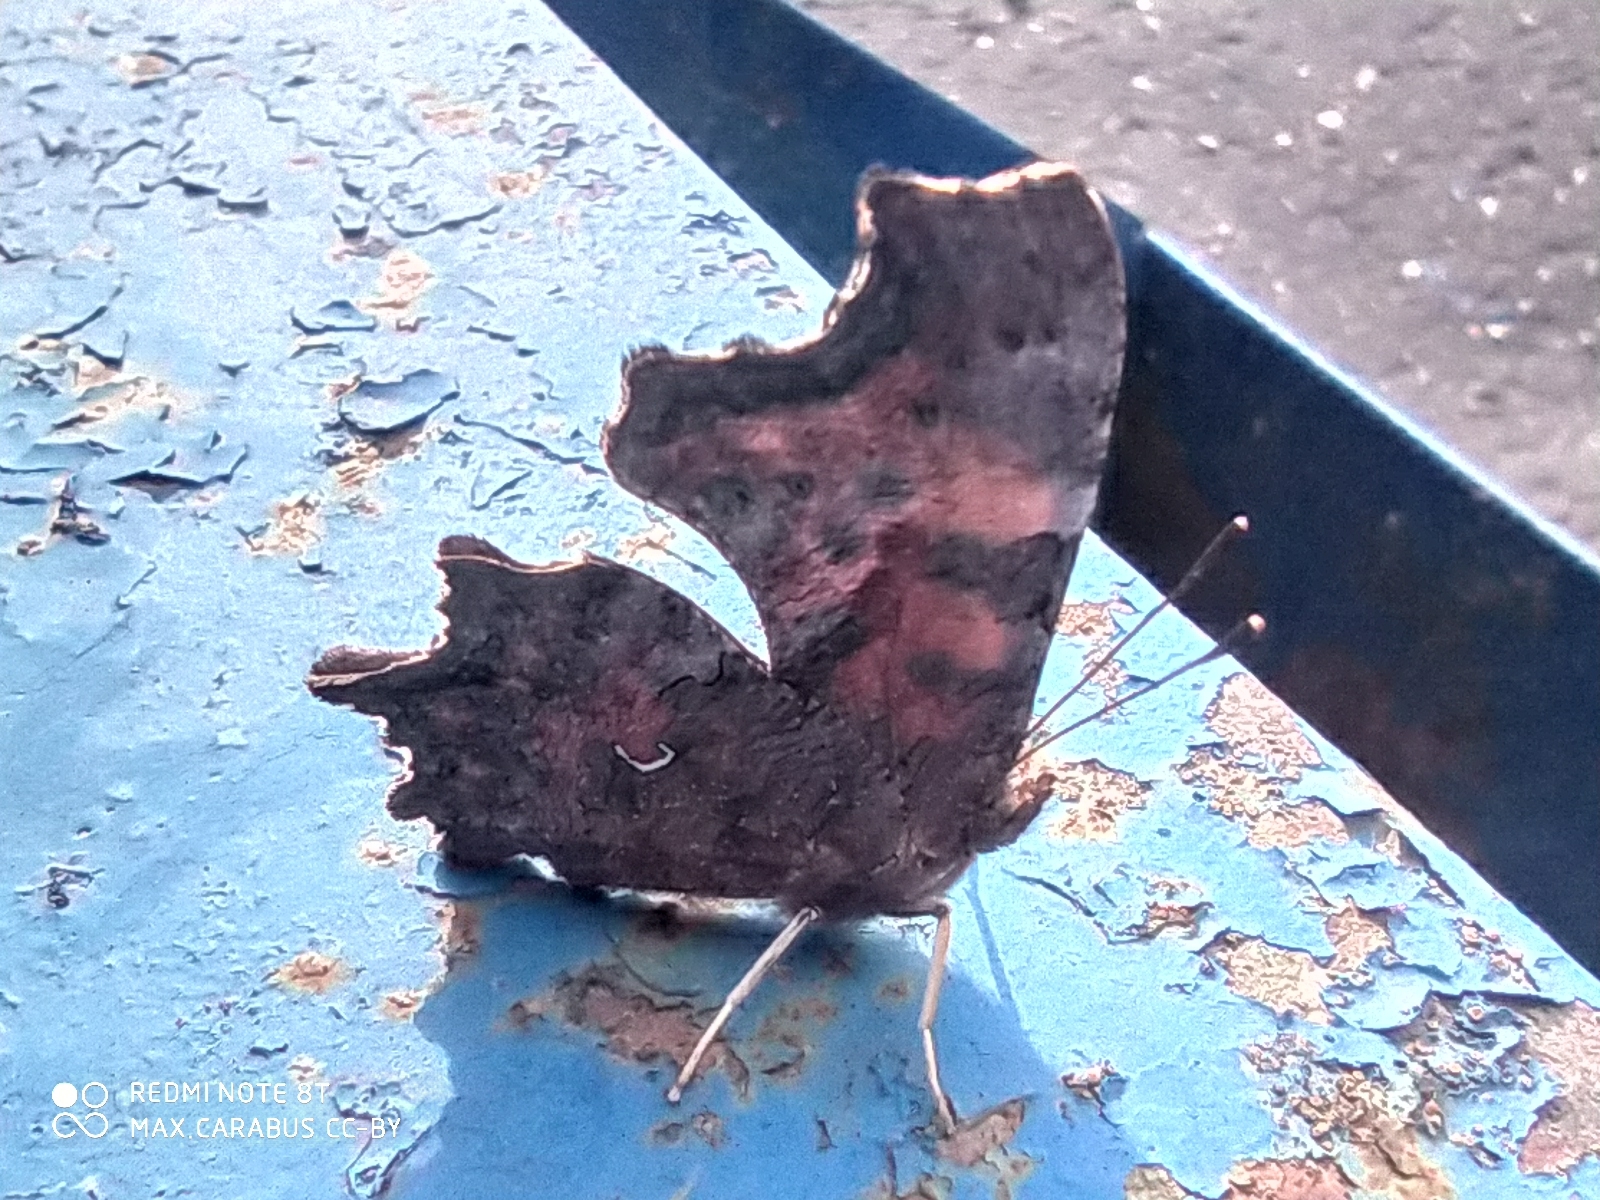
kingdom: Animalia
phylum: Arthropoda
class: Insecta
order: Lepidoptera
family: Nymphalidae
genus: Polygonia
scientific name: Polygonia c-album
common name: Comma
